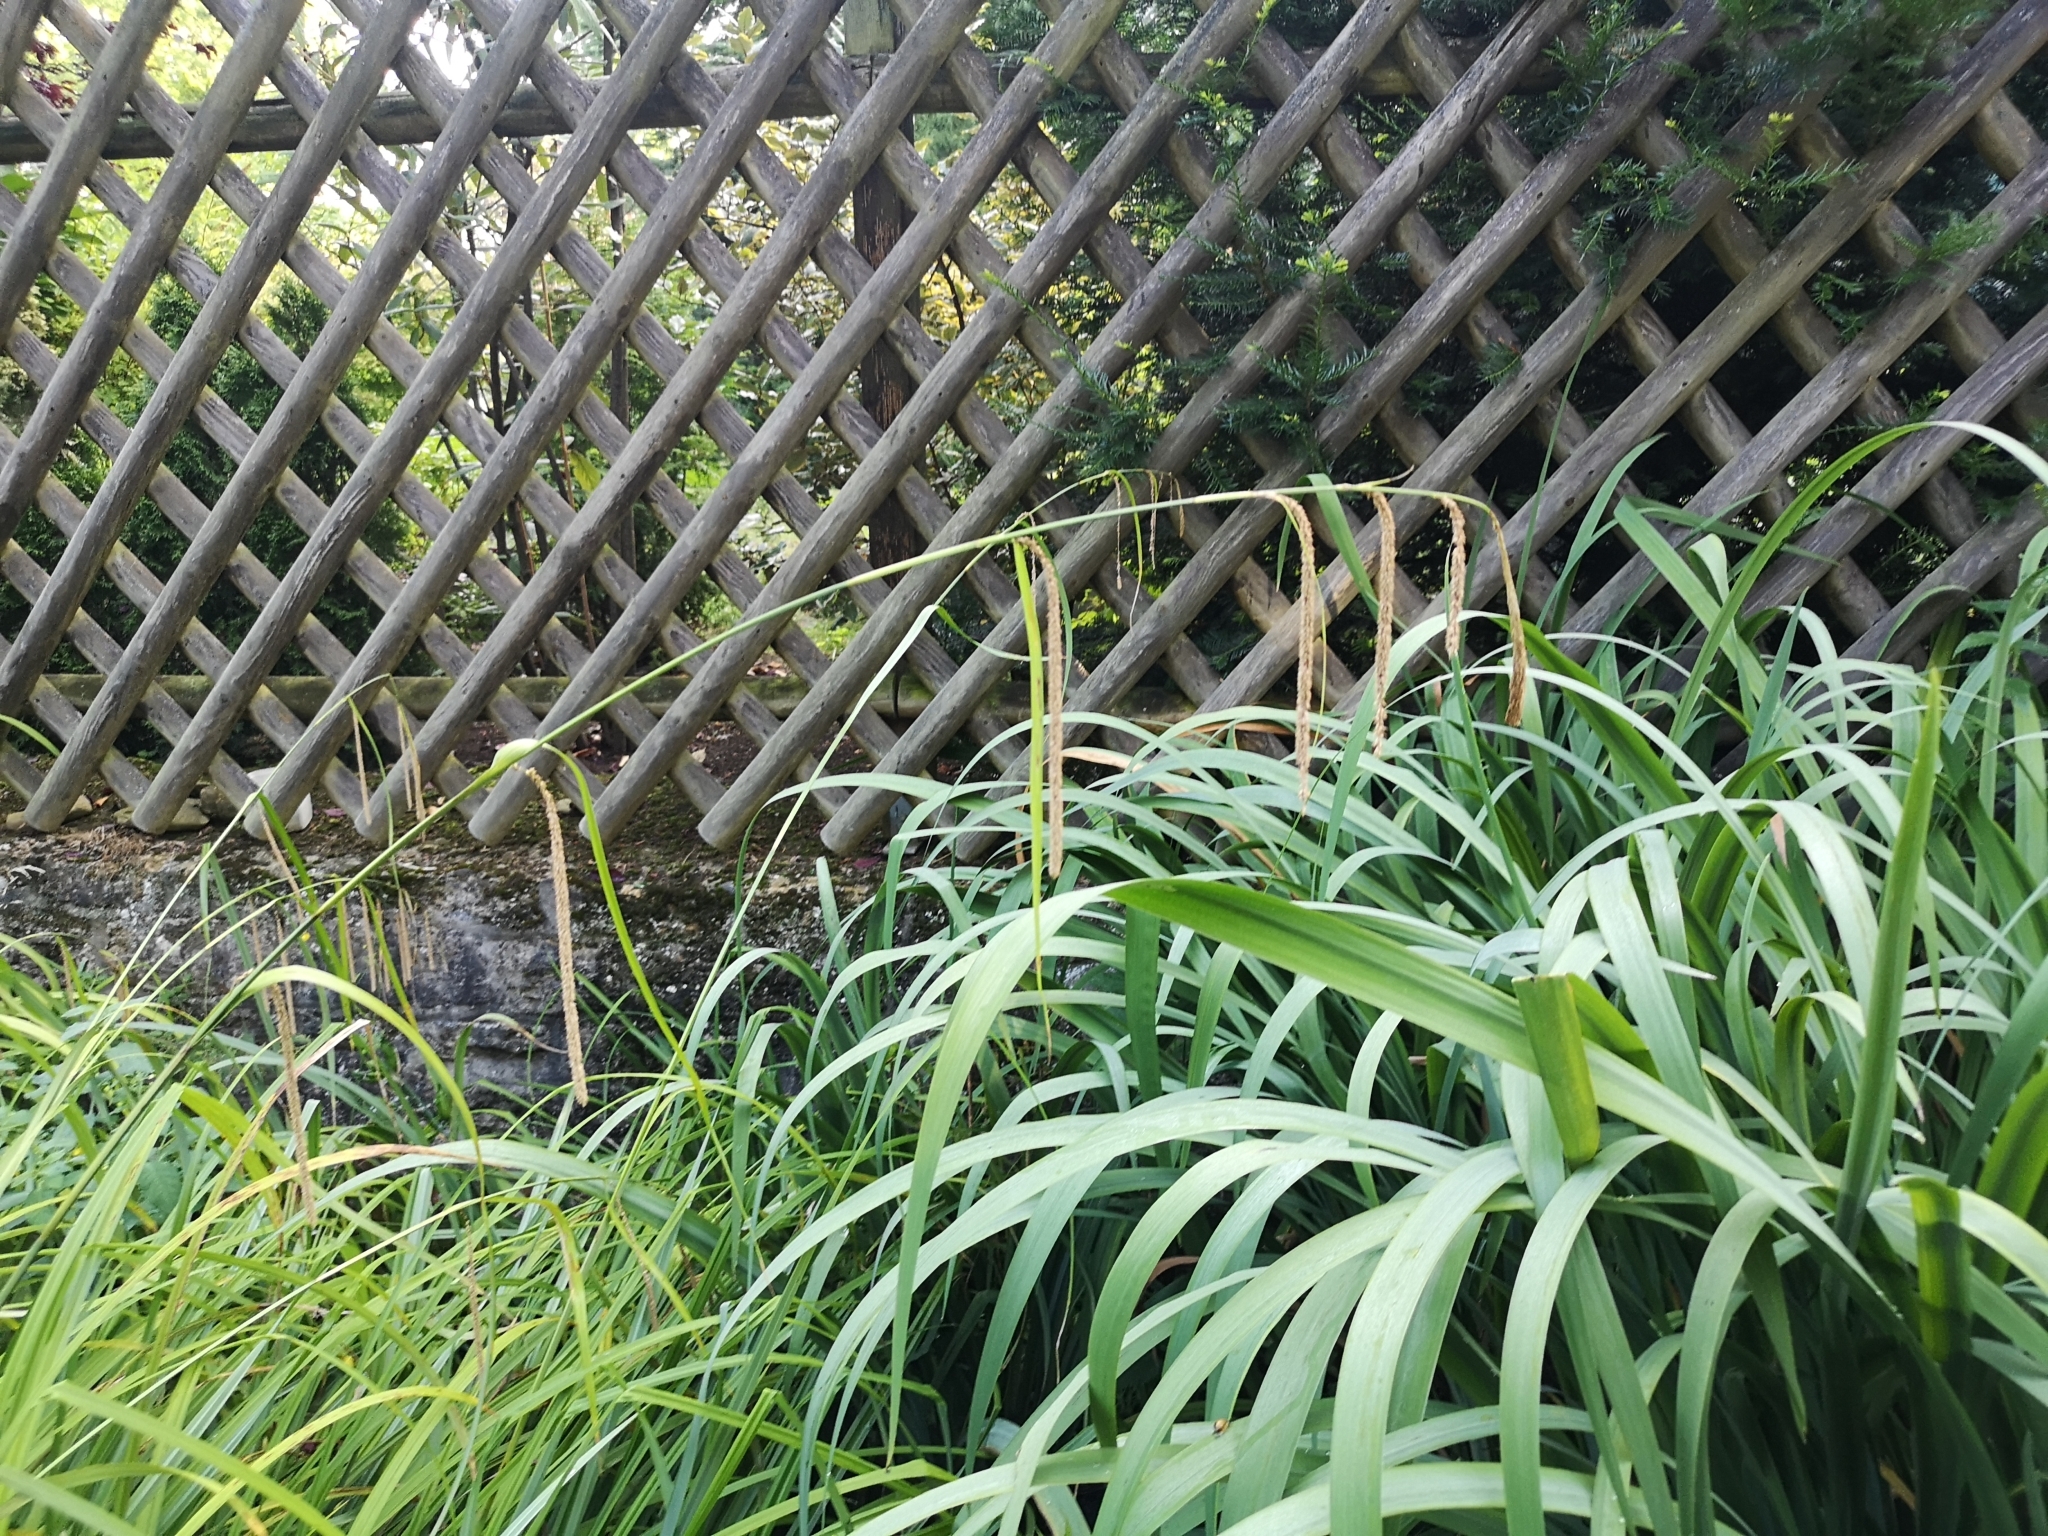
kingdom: Plantae
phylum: Tracheophyta
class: Liliopsida
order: Poales
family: Cyperaceae
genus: Carex
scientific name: Carex pendula
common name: Pendulous sedge
